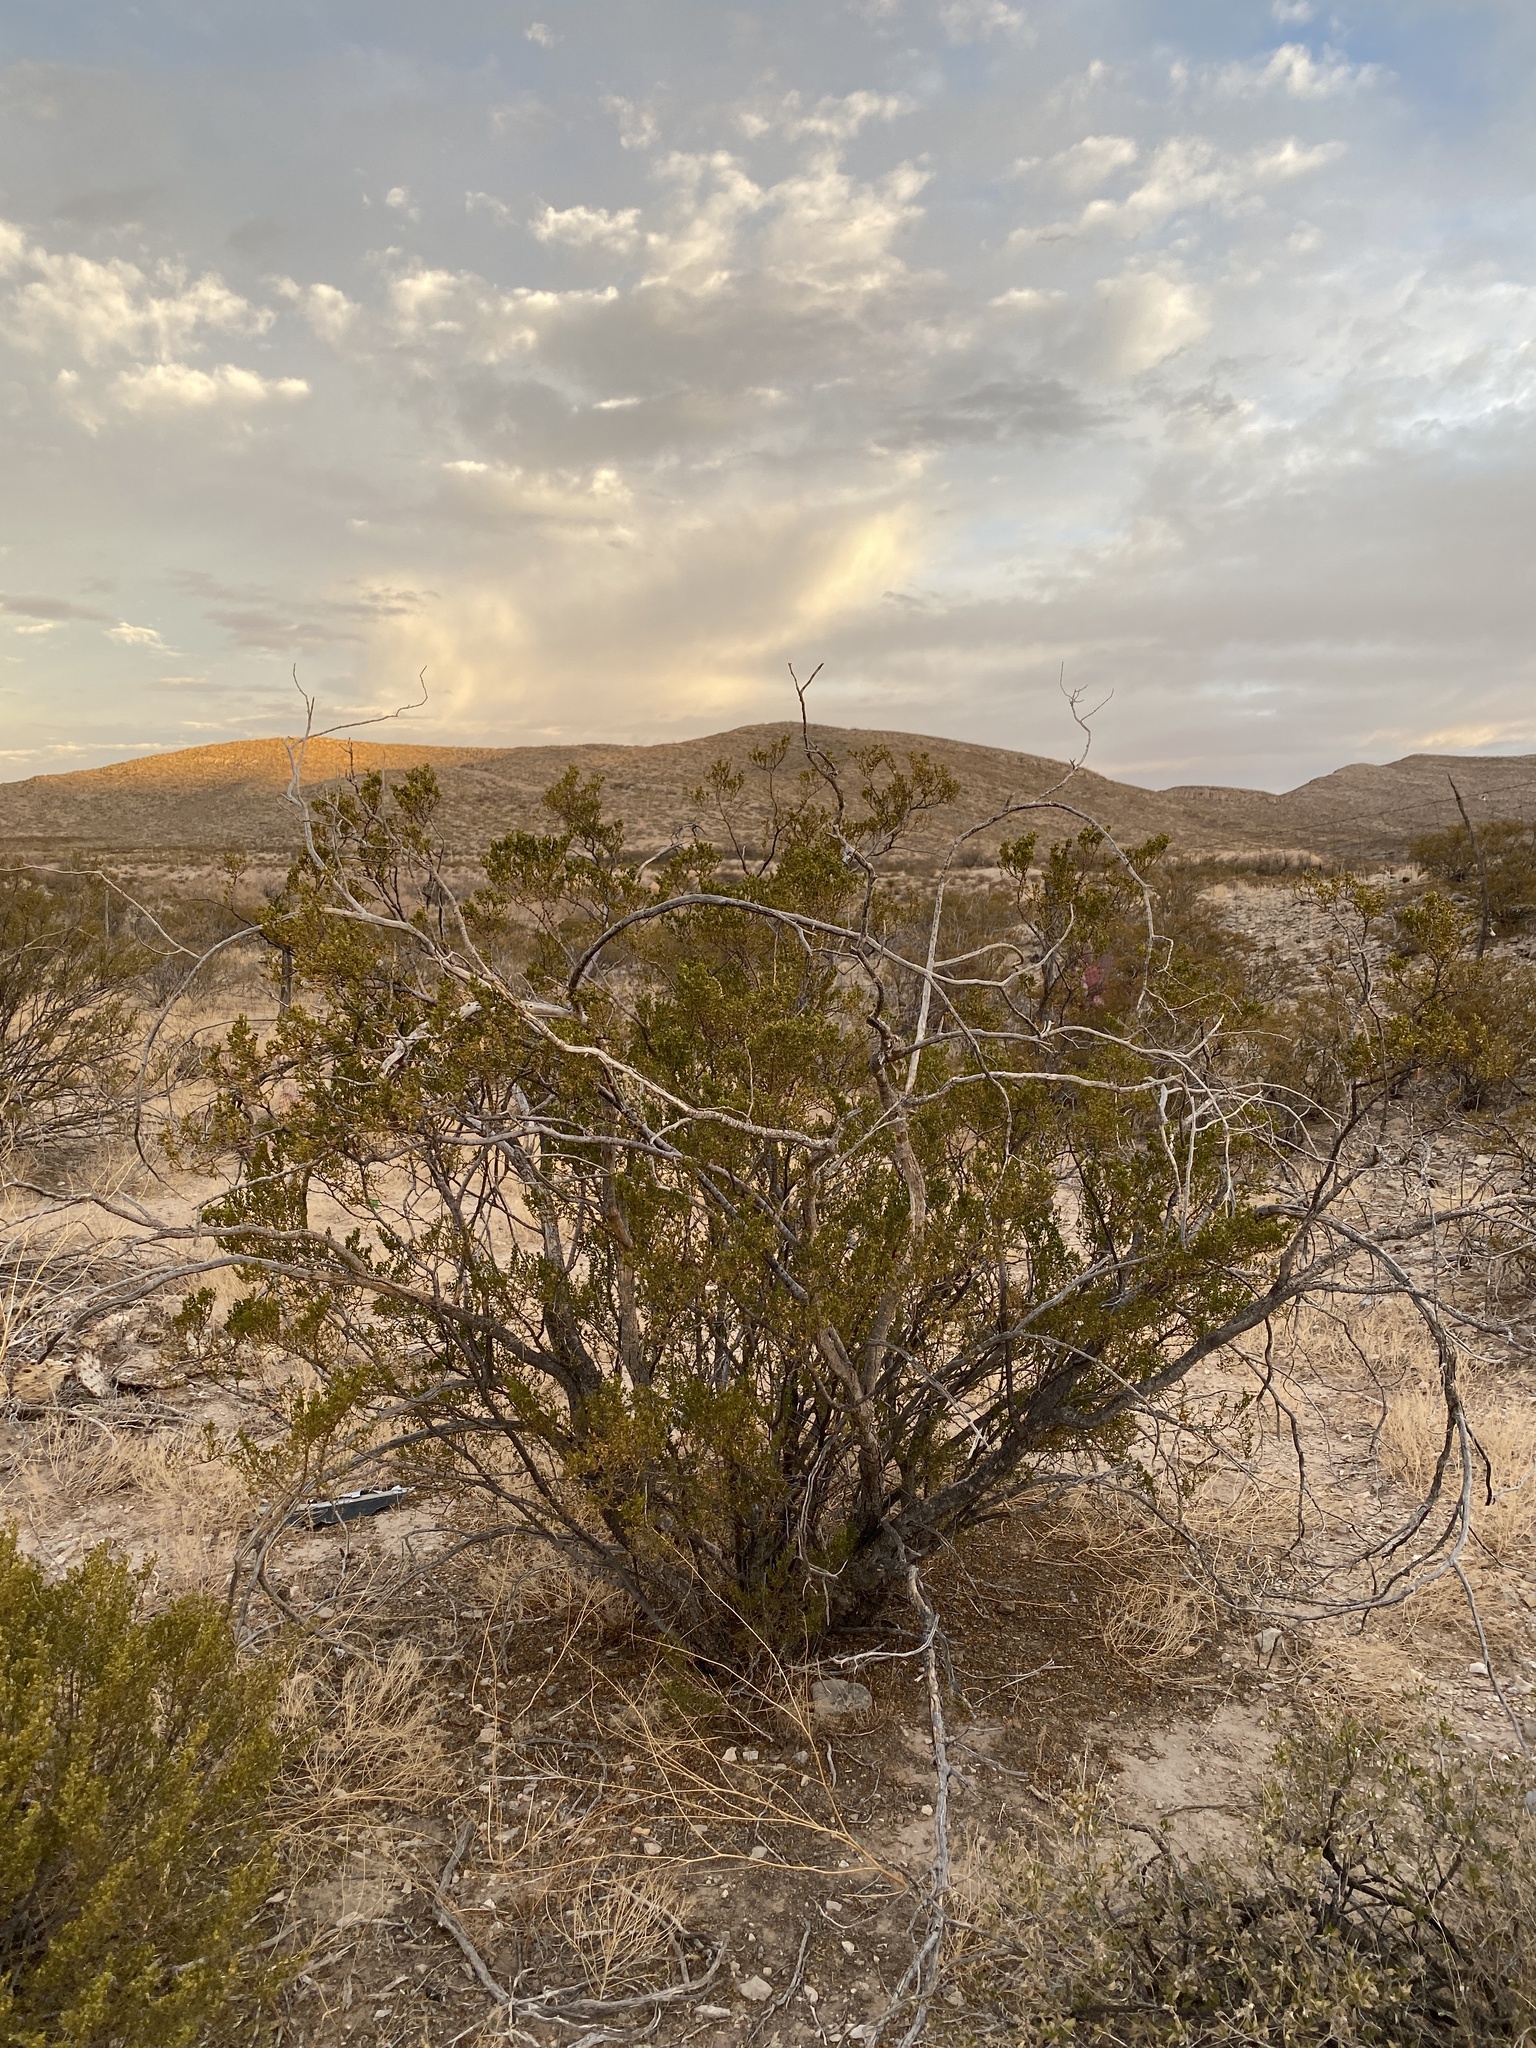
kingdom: Plantae
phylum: Tracheophyta
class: Magnoliopsida
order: Zygophyllales
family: Zygophyllaceae
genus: Larrea
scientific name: Larrea tridentata
